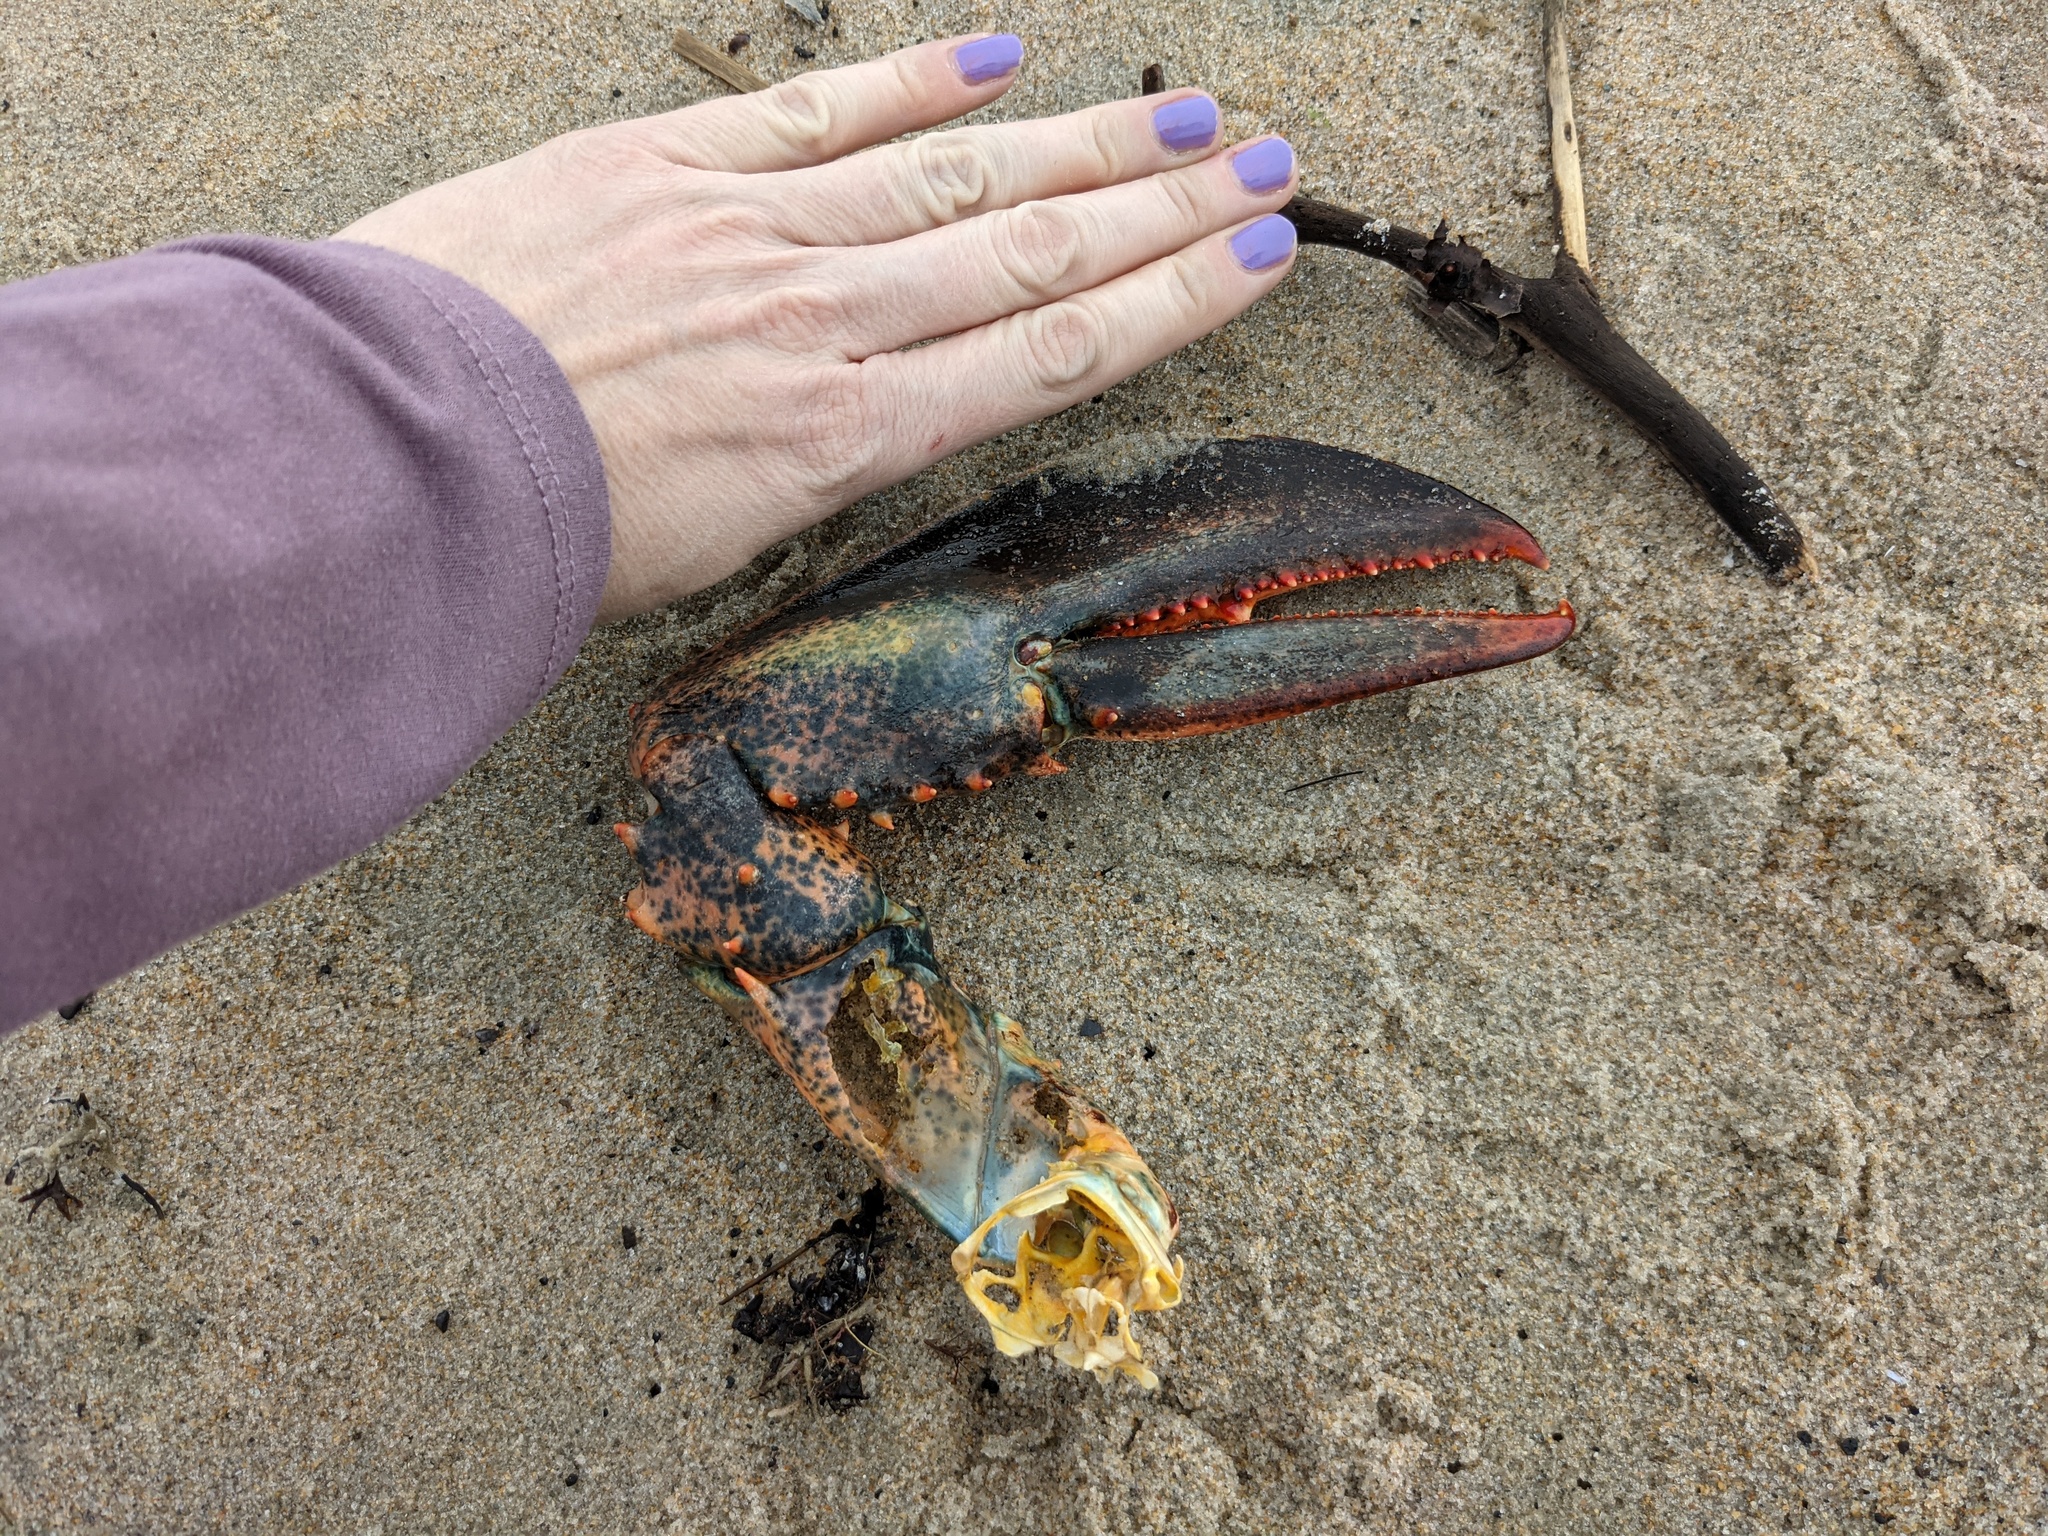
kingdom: Animalia
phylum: Arthropoda
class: Malacostraca
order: Decapoda
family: Nephropidae
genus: Homarus
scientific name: Homarus americanus
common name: American lobster
